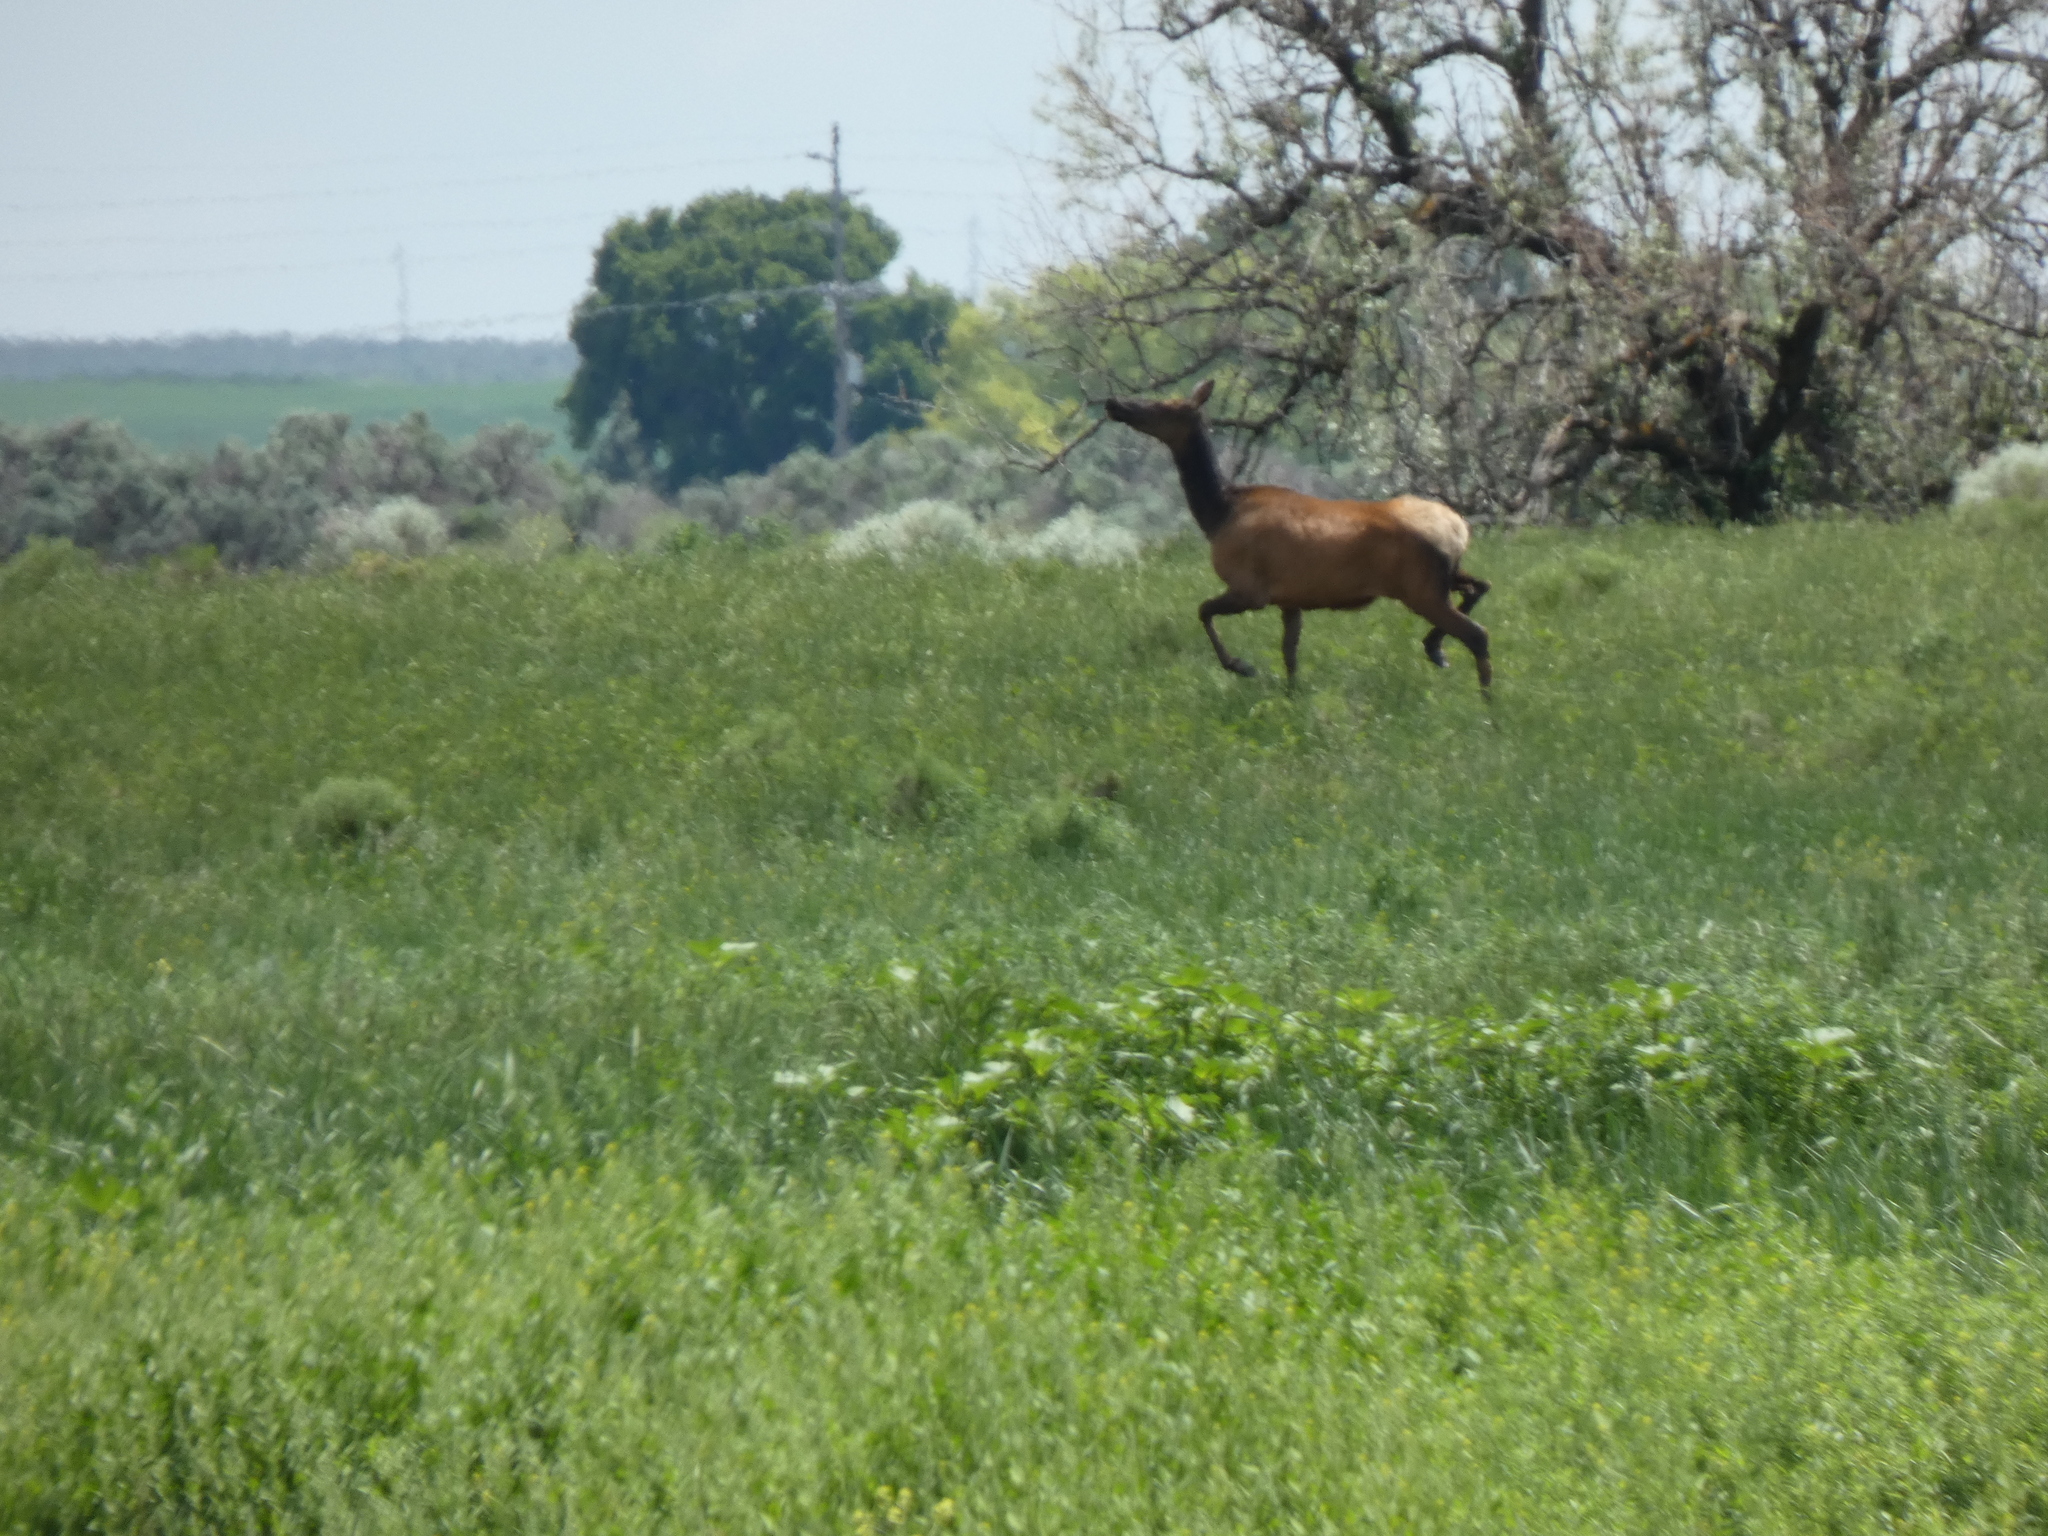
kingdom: Animalia
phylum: Chordata
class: Mammalia
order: Artiodactyla
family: Cervidae
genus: Cervus
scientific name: Cervus elaphus
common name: Red deer
